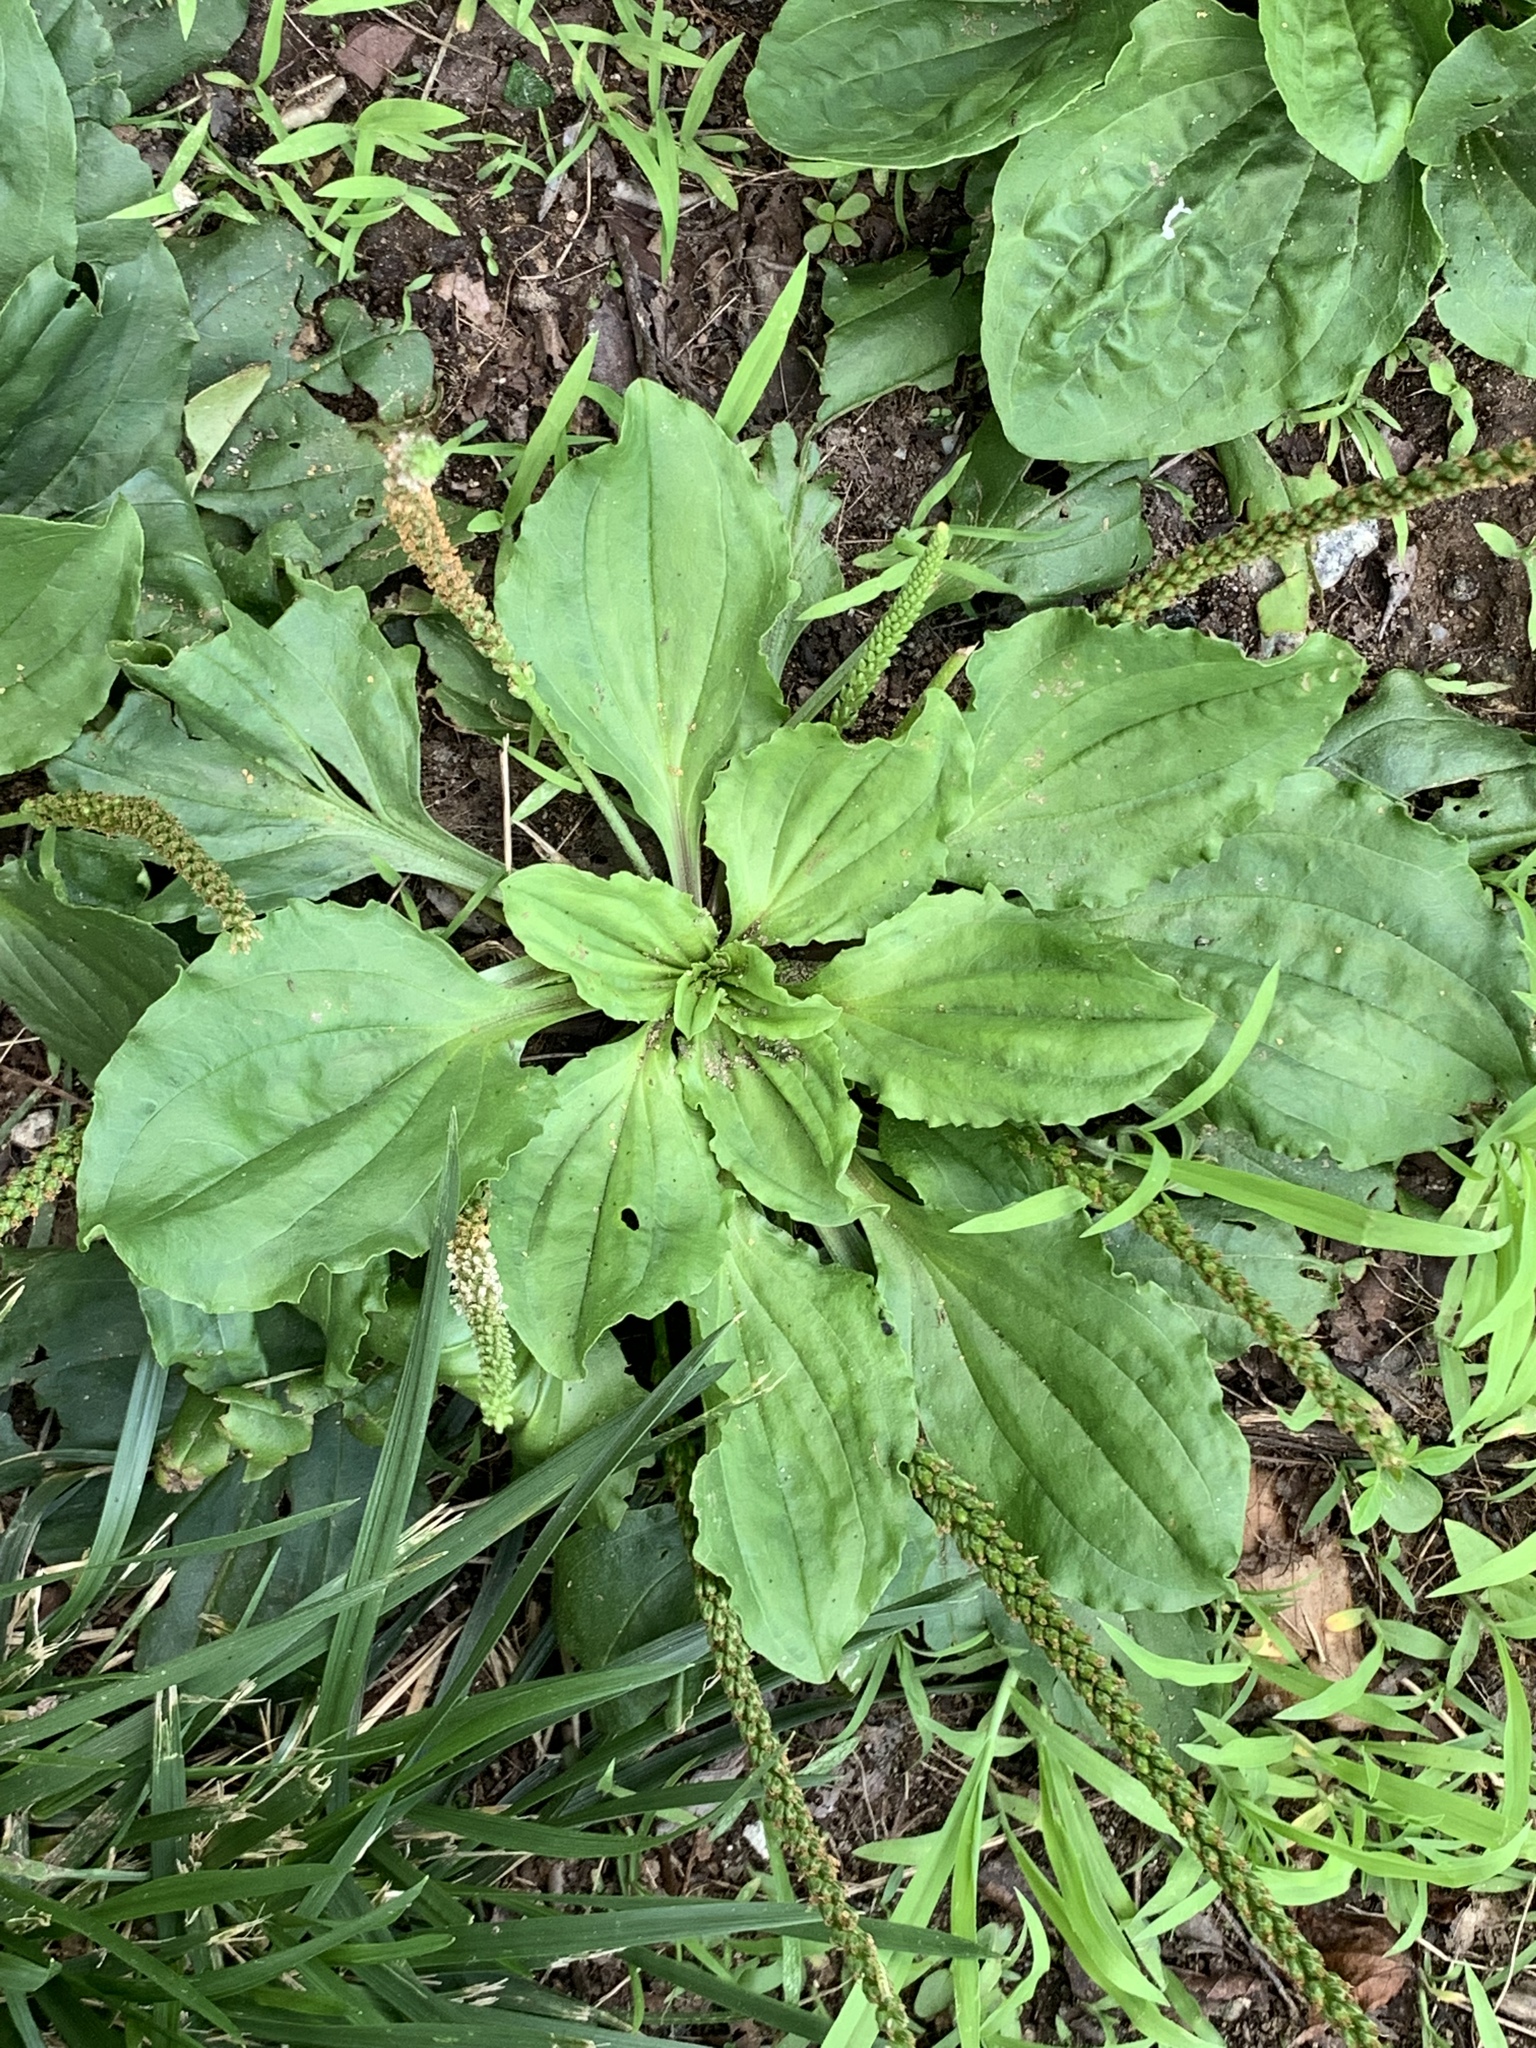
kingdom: Plantae
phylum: Tracheophyta
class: Magnoliopsida
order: Lamiales
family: Plantaginaceae
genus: Plantago
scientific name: Plantago rugelii
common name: American plantain
